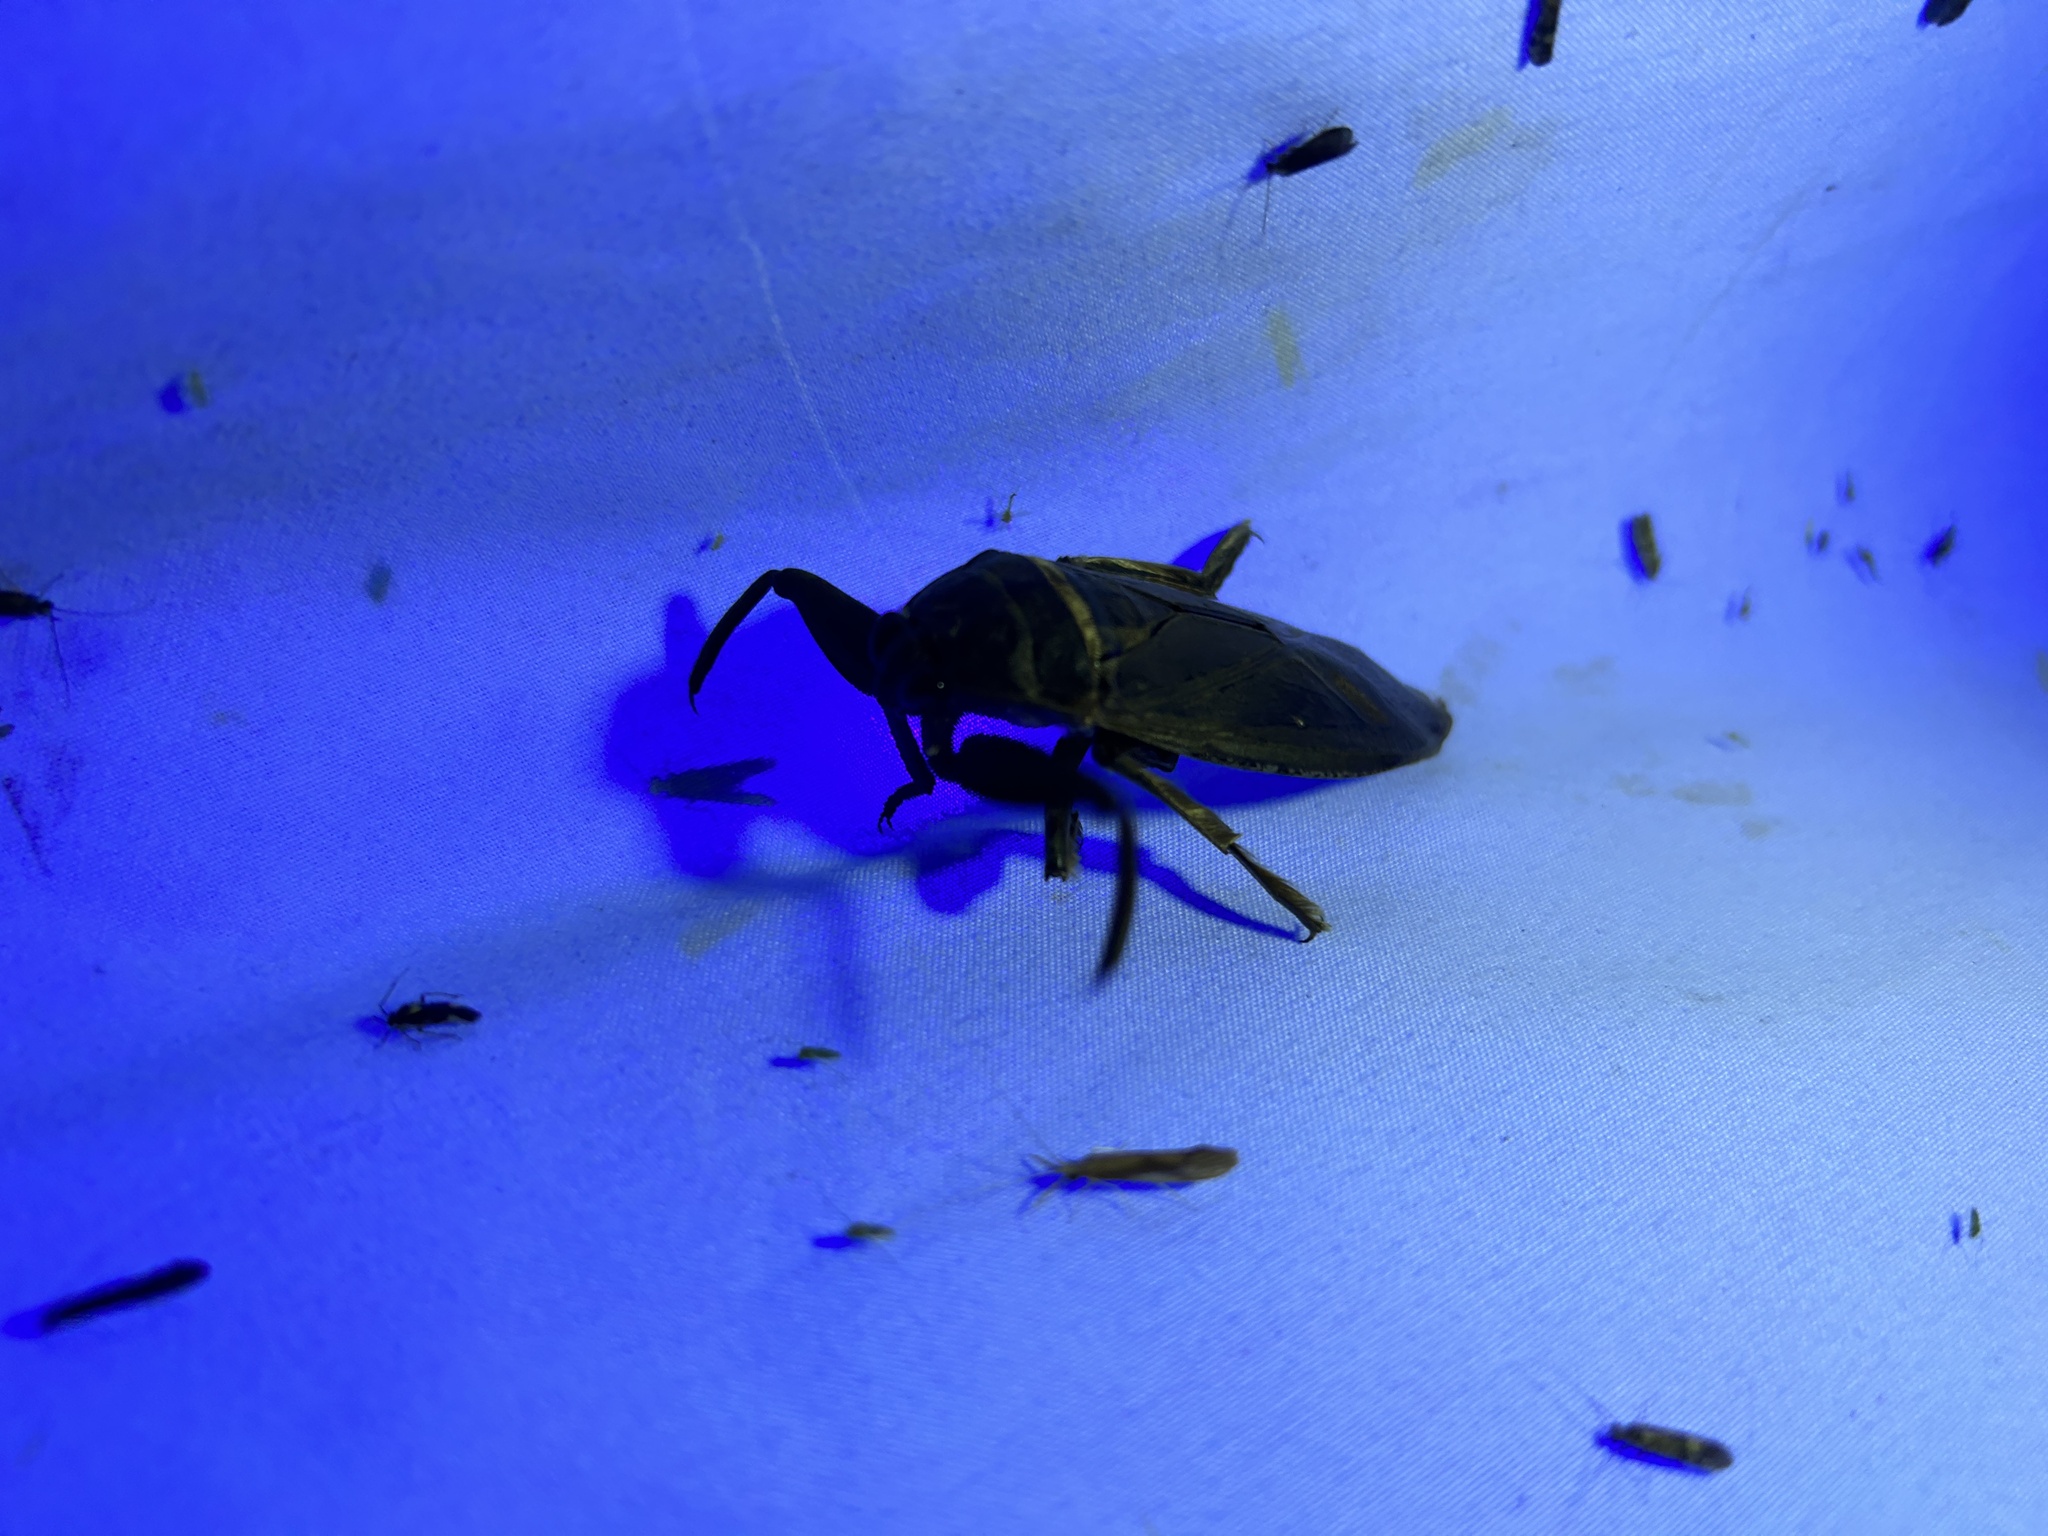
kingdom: Animalia
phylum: Arthropoda
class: Insecta
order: Hemiptera
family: Belostomatidae
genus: Lethocerus
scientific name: Lethocerus americanus
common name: Giant water bug
